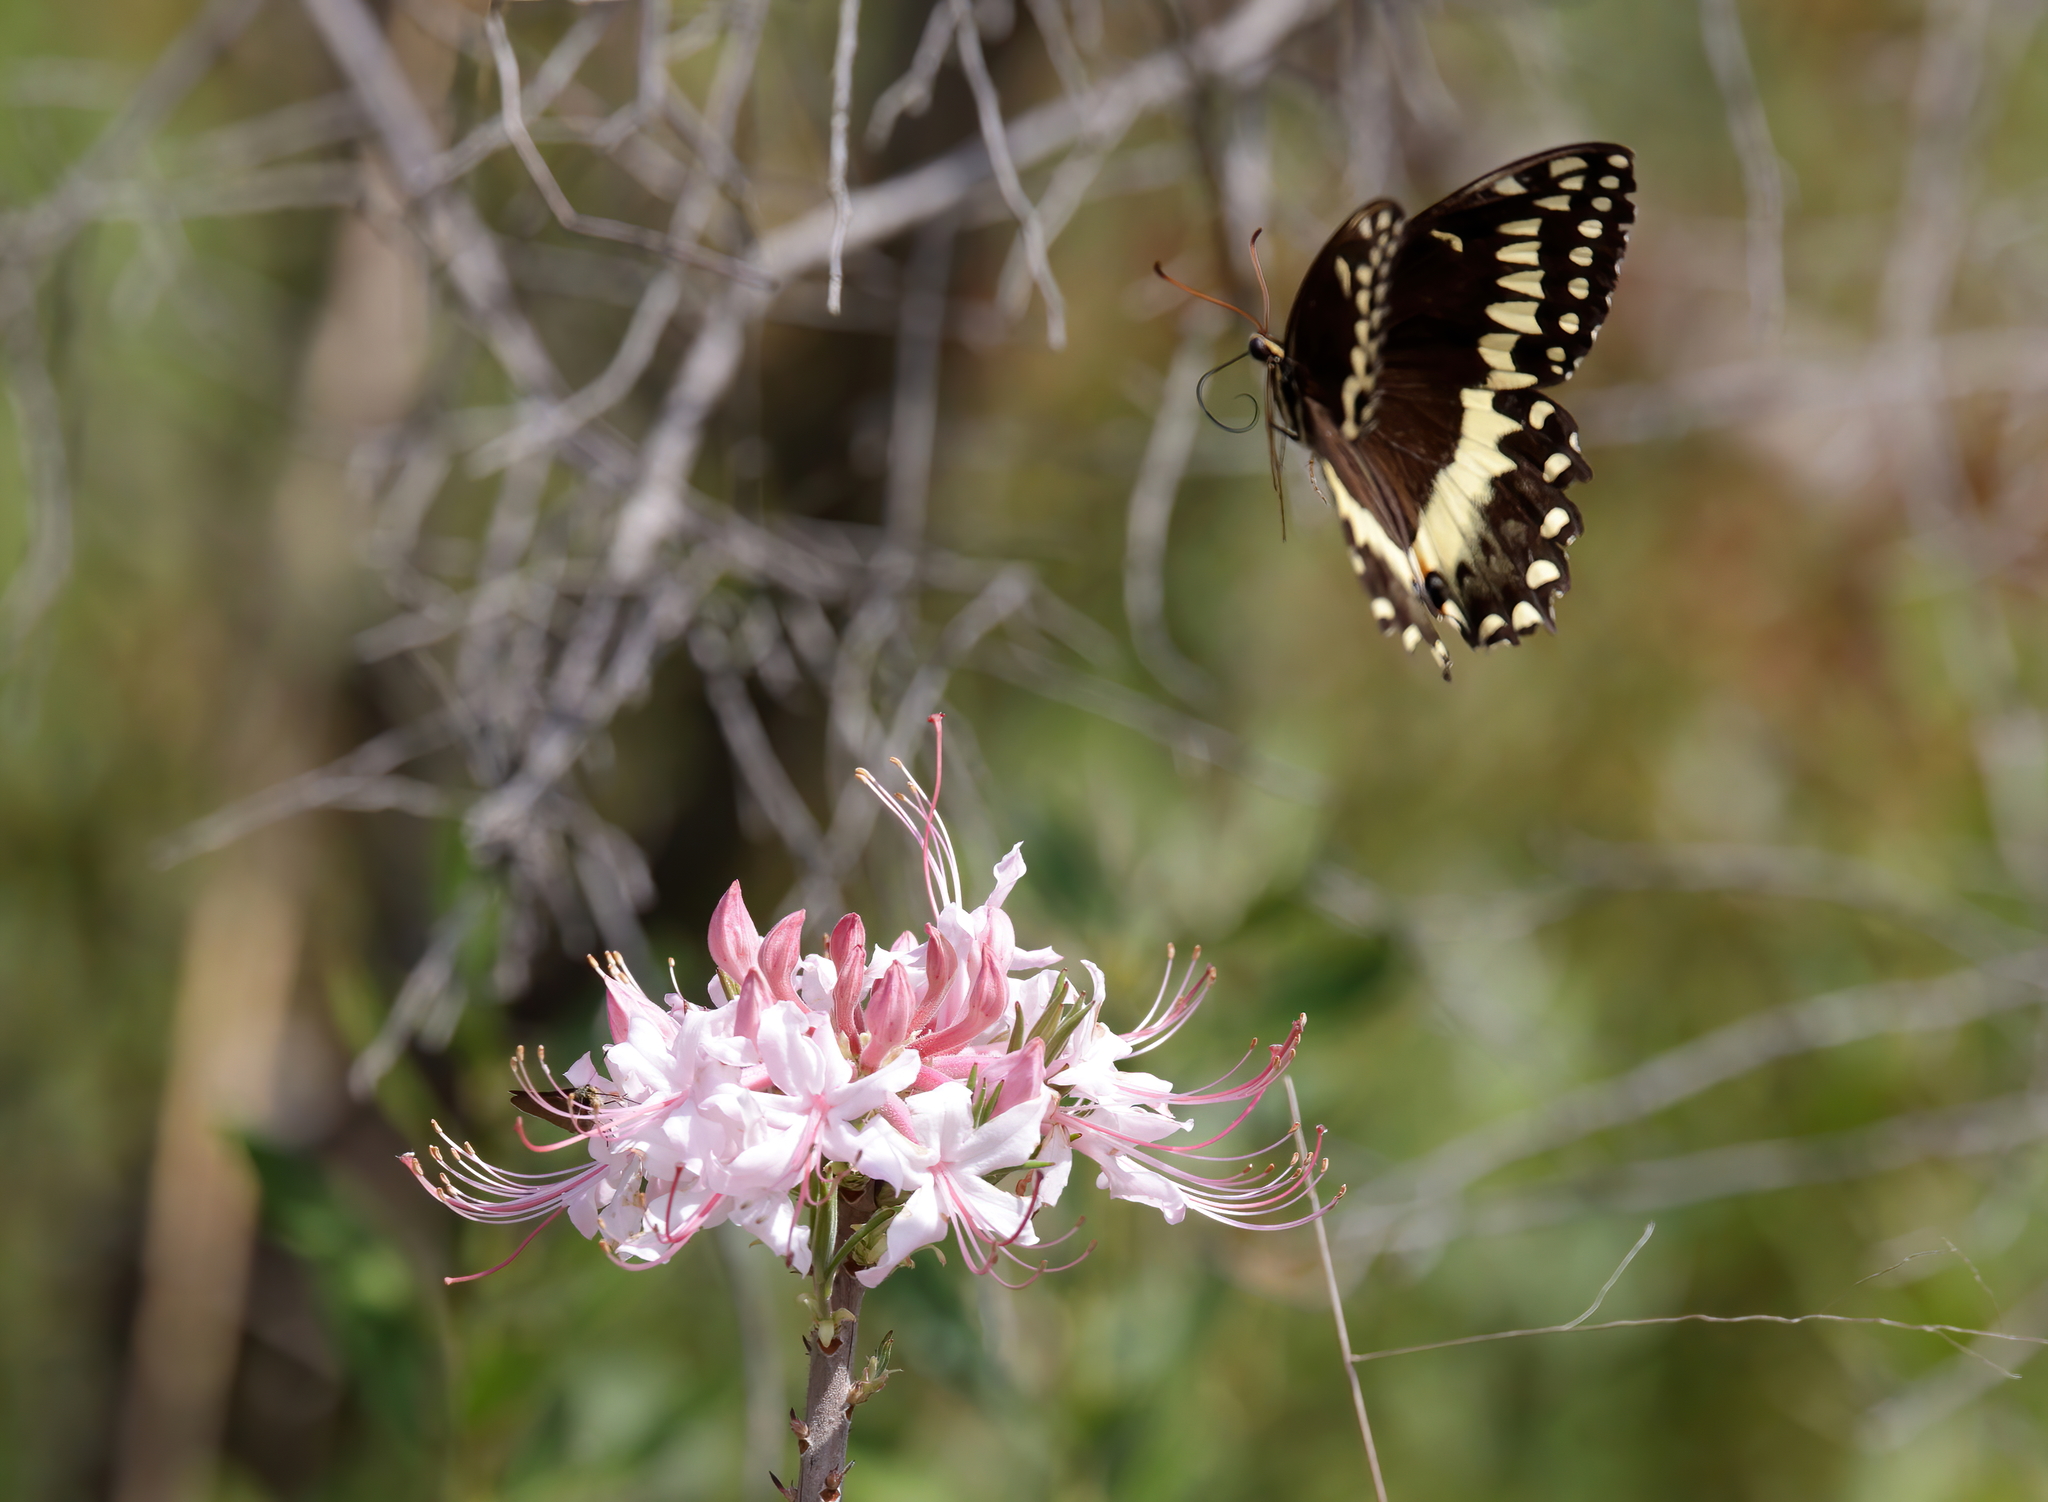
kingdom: Animalia
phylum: Arthropoda
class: Insecta
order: Lepidoptera
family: Papilionidae
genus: Papilio
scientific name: Papilio palamedes
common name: Palamedes swallowtail
